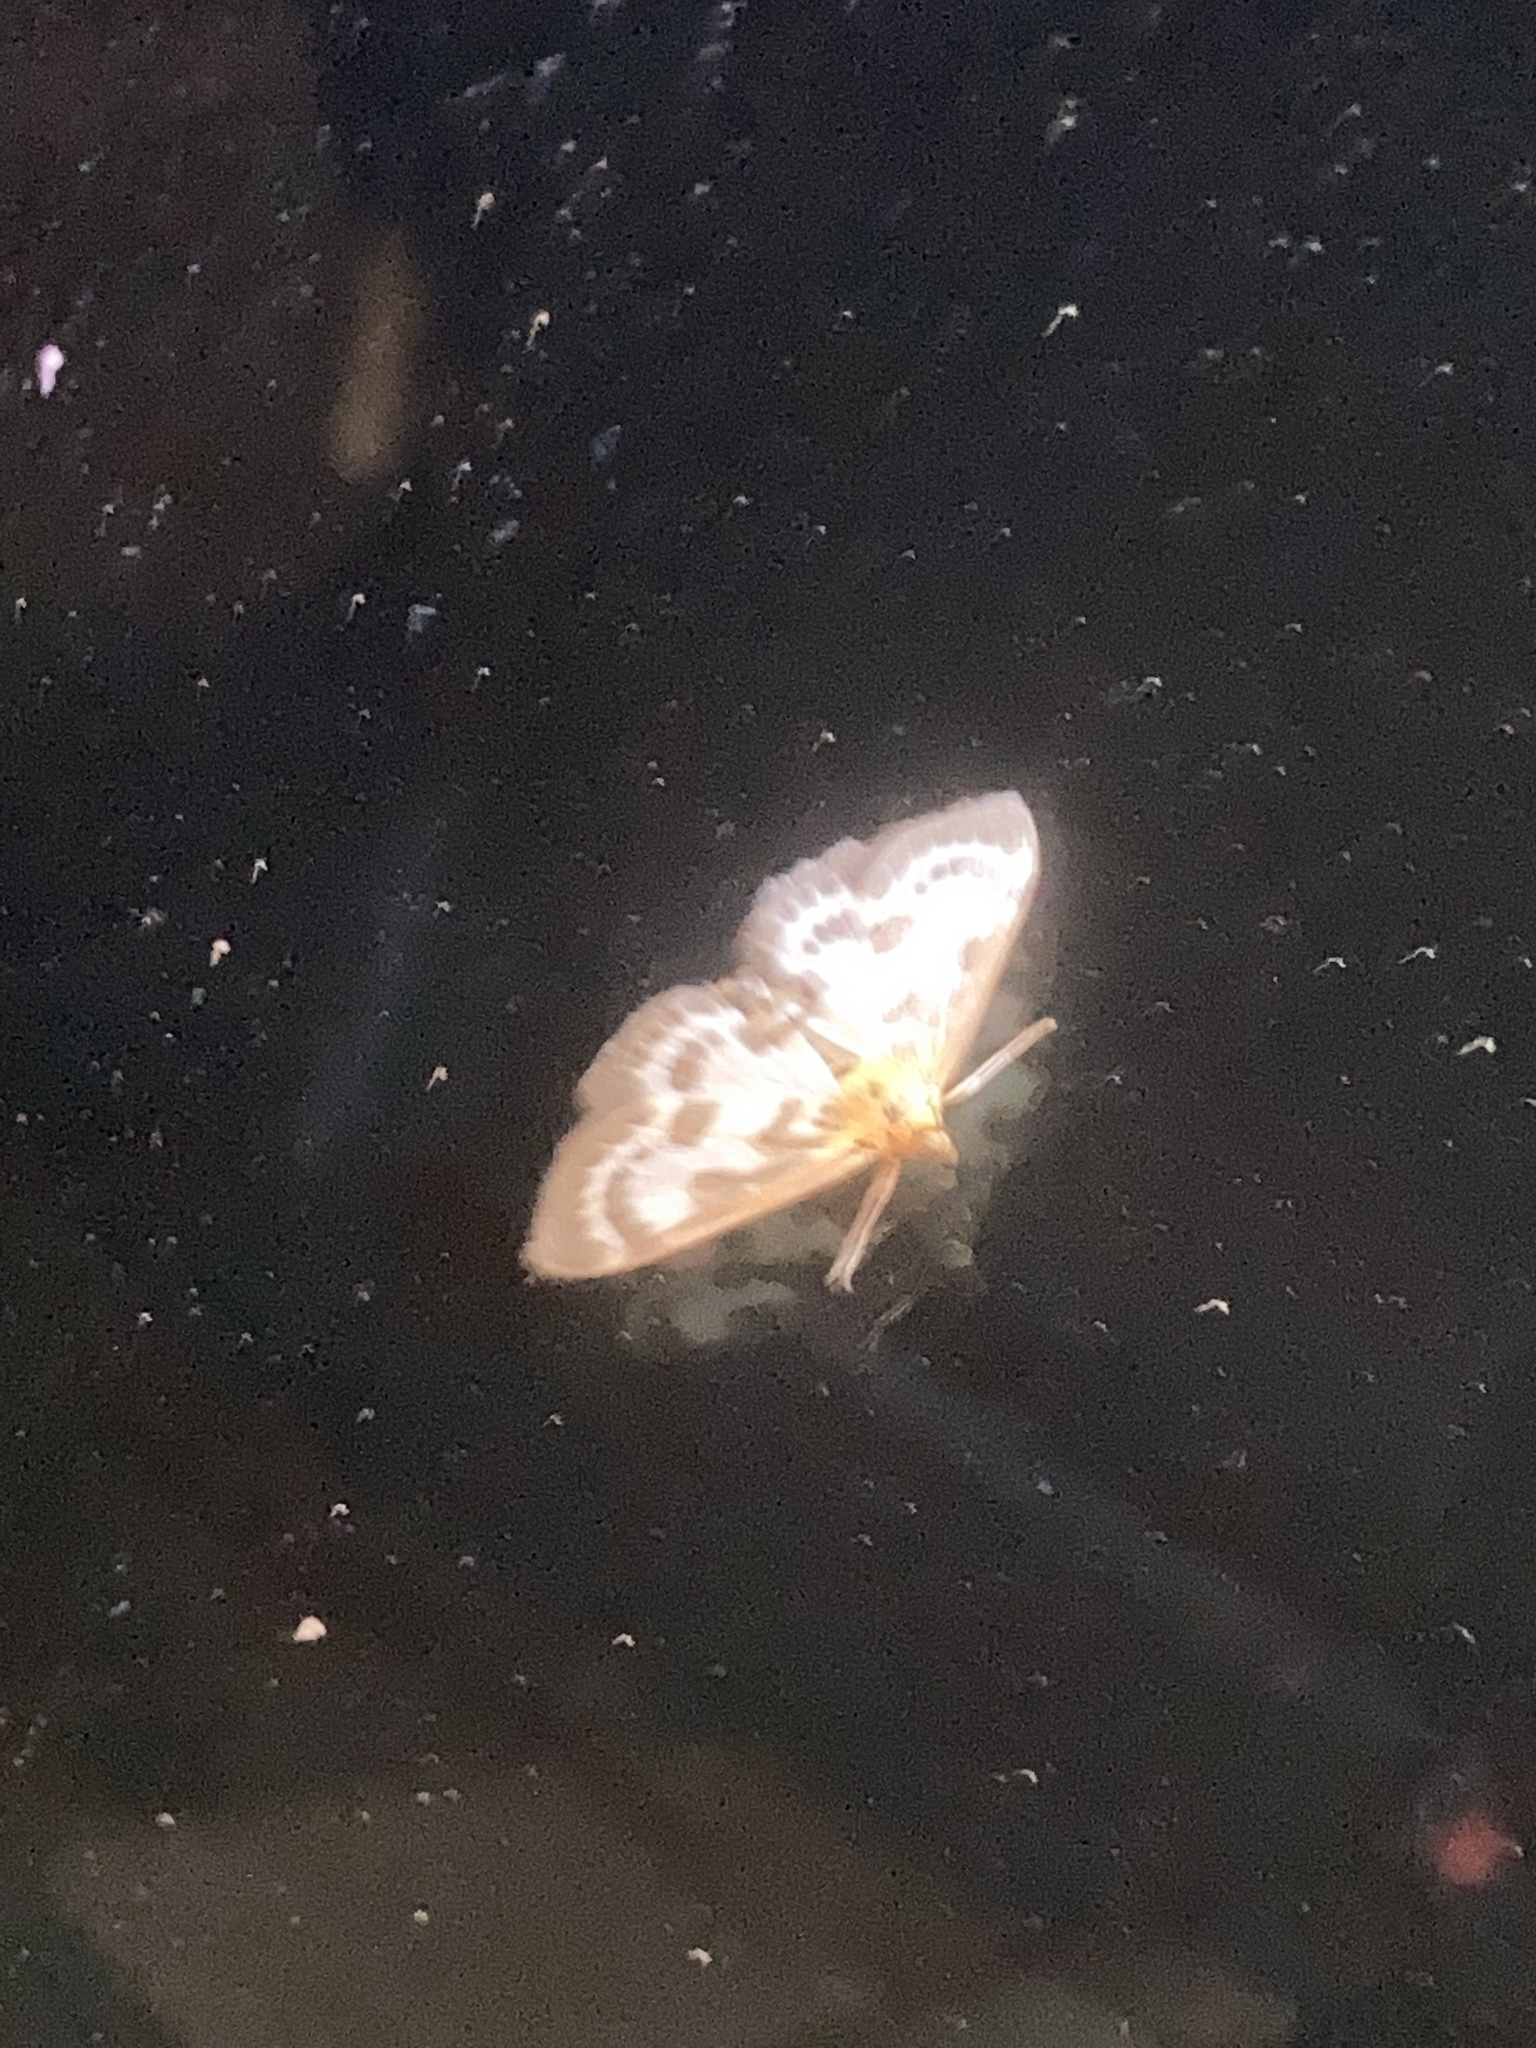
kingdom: Animalia
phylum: Arthropoda
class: Insecta
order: Lepidoptera
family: Crambidae
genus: Anania
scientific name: Anania hortulata
